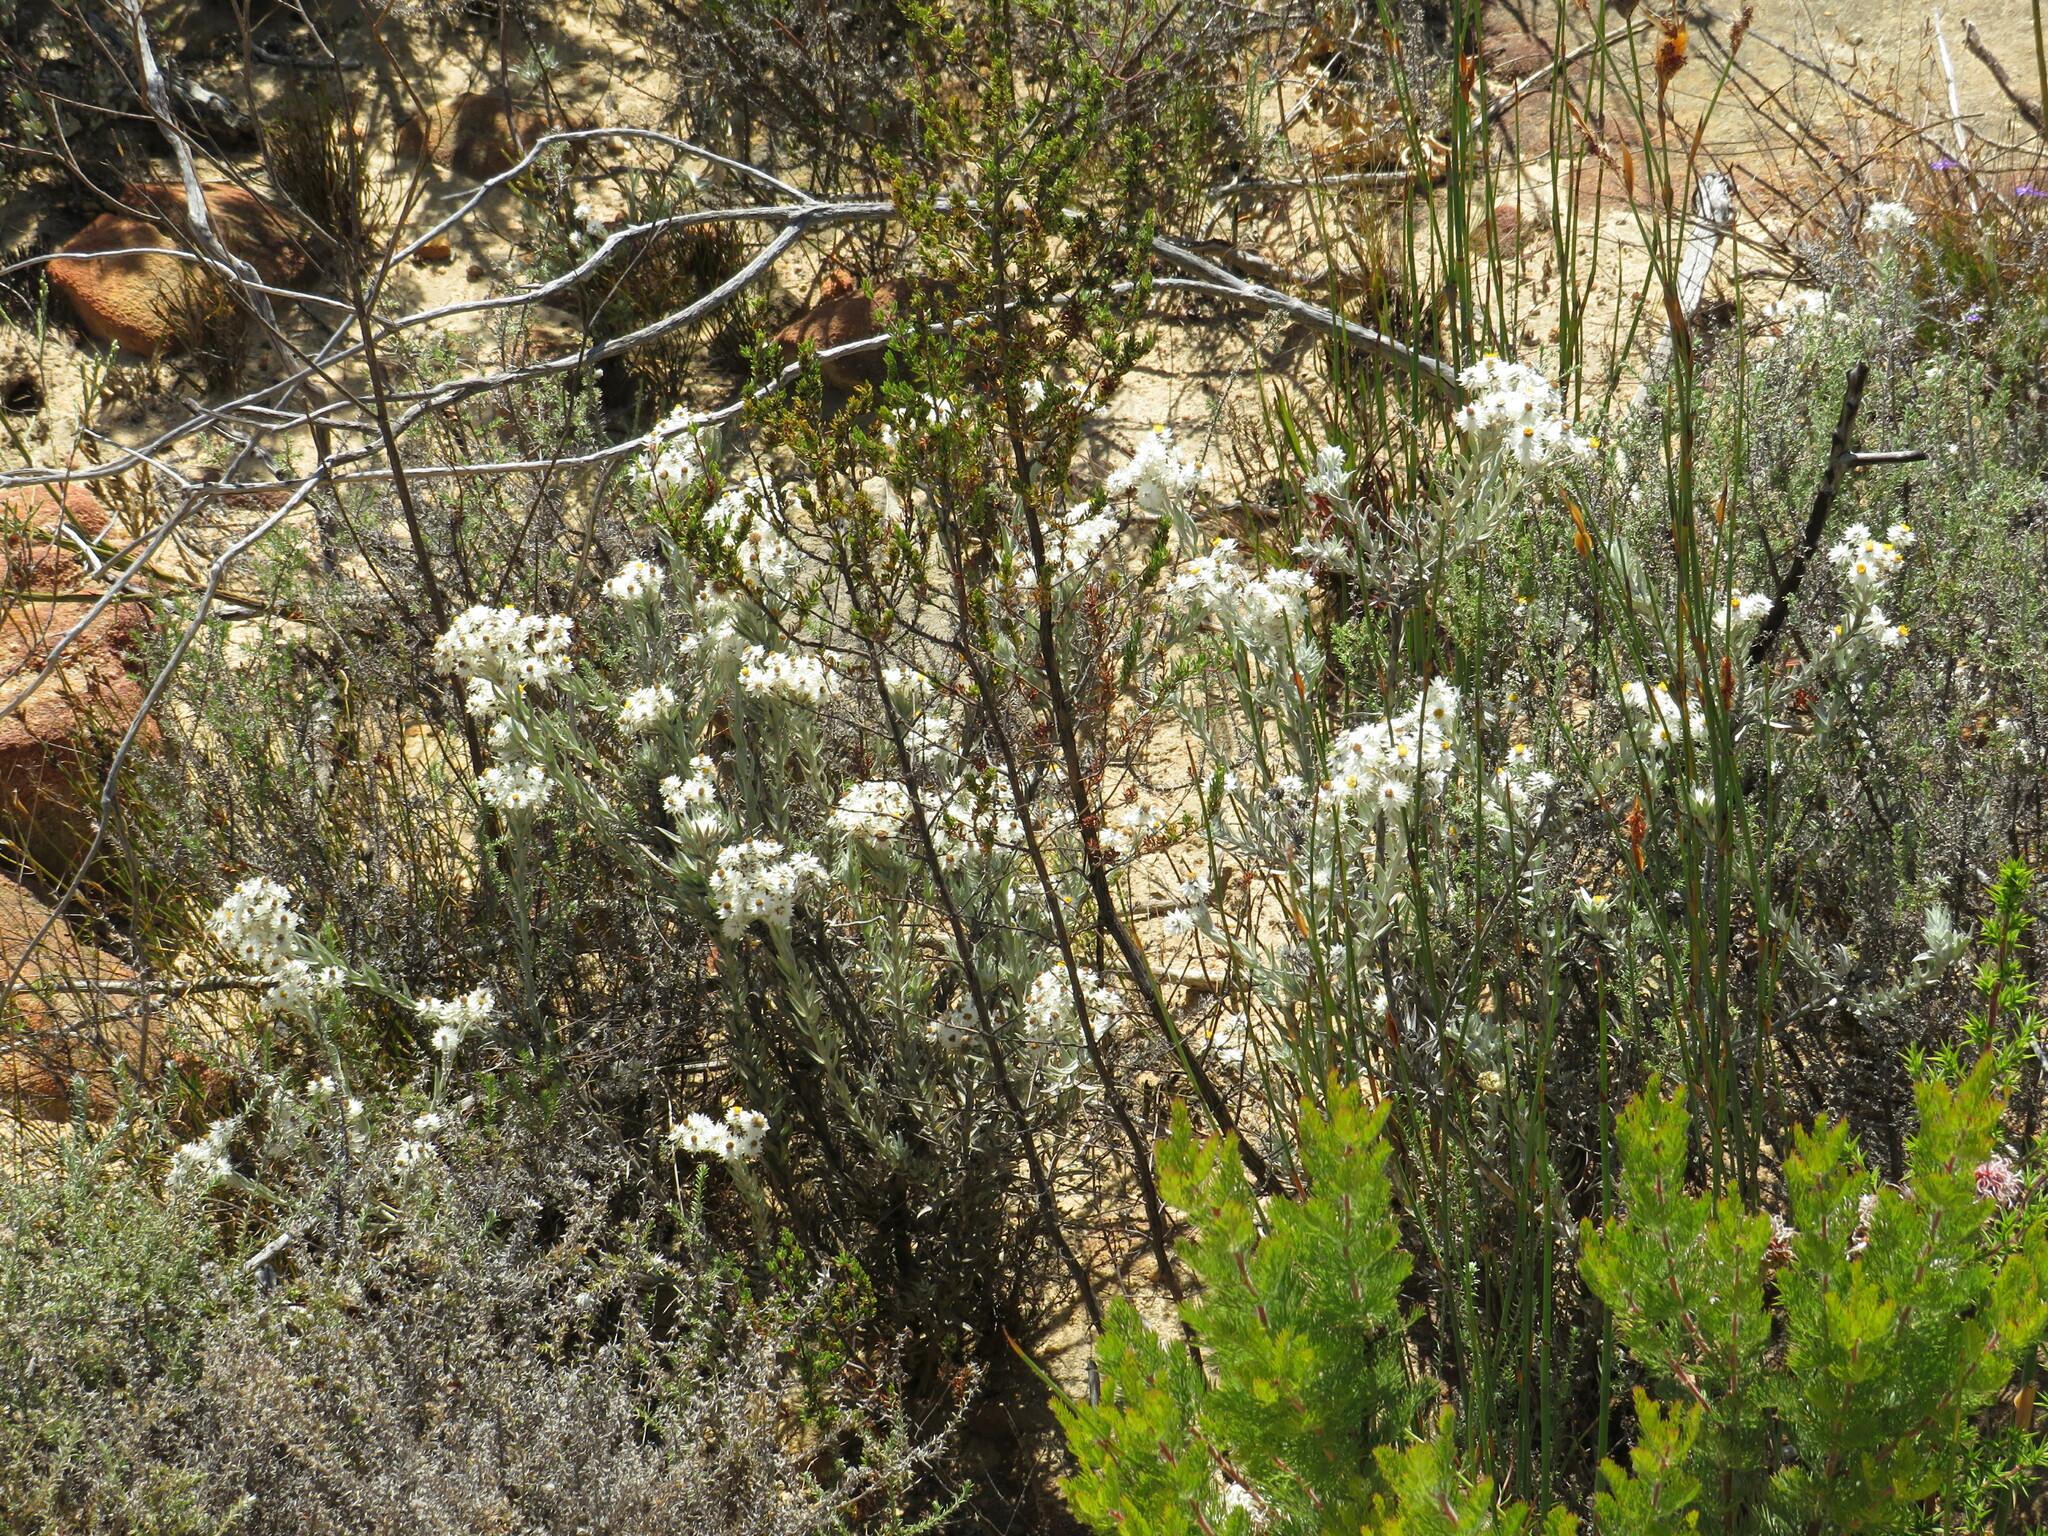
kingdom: Plantae
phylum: Tracheophyta
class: Magnoliopsida
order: Asterales
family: Asteraceae
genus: Achyranthemum
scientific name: Achyranthemum paniculatum
